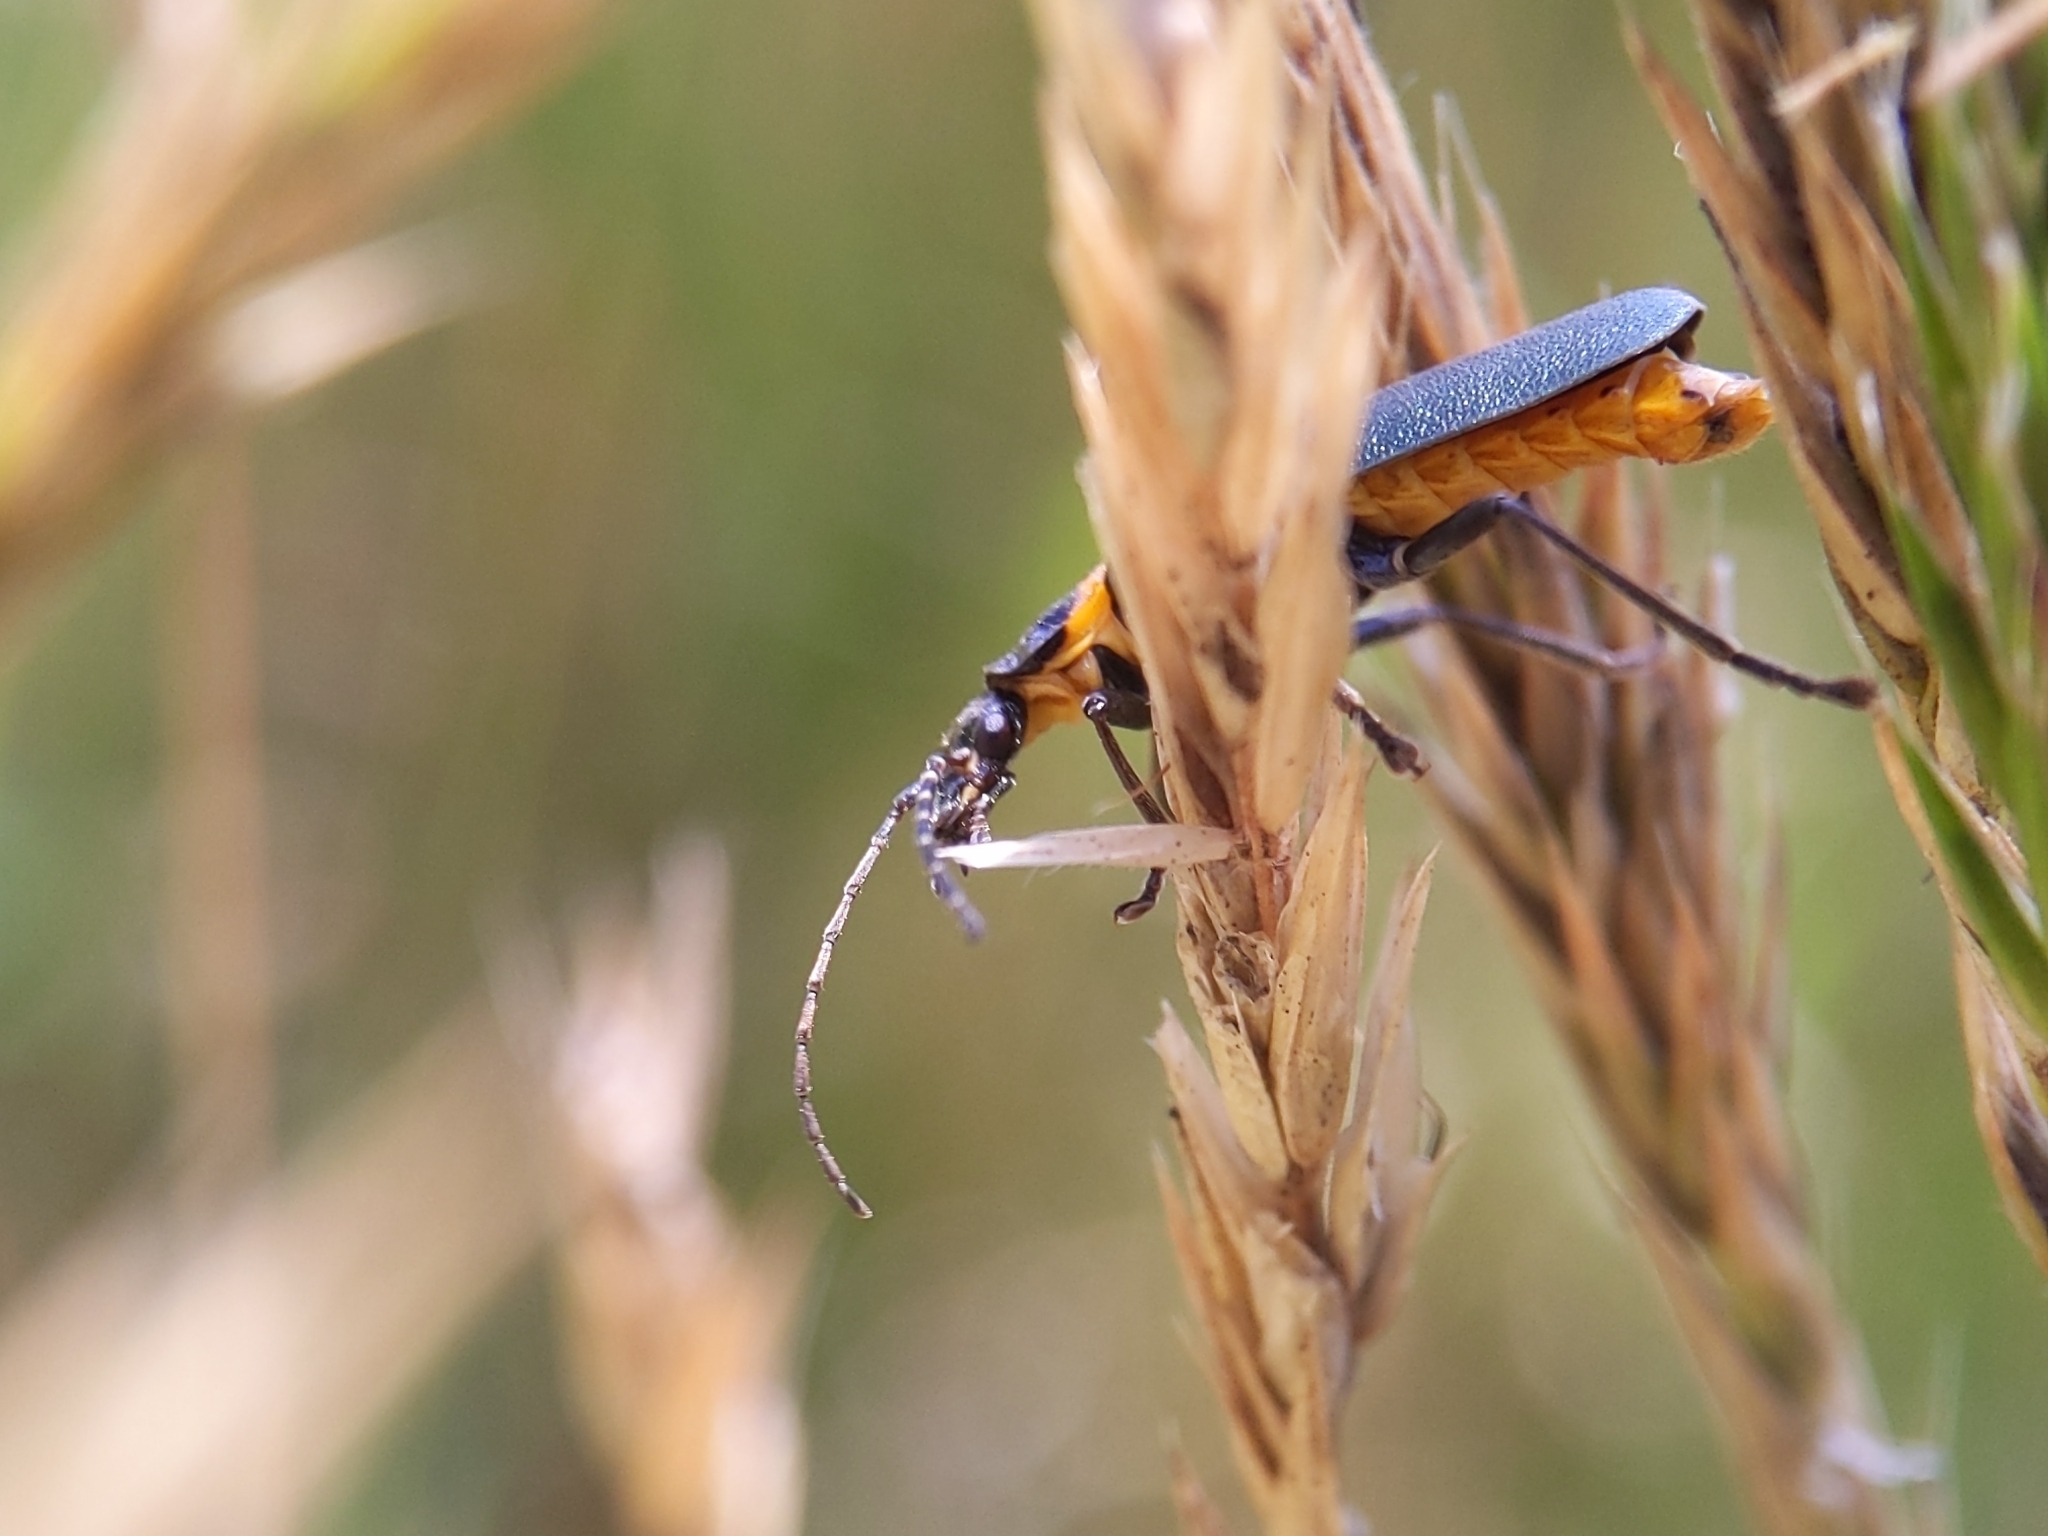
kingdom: Animalia
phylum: Arthropoda
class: Insecta
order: Coleoptera
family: Cantharidae
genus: Chauliognathus
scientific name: Chauliognathus
